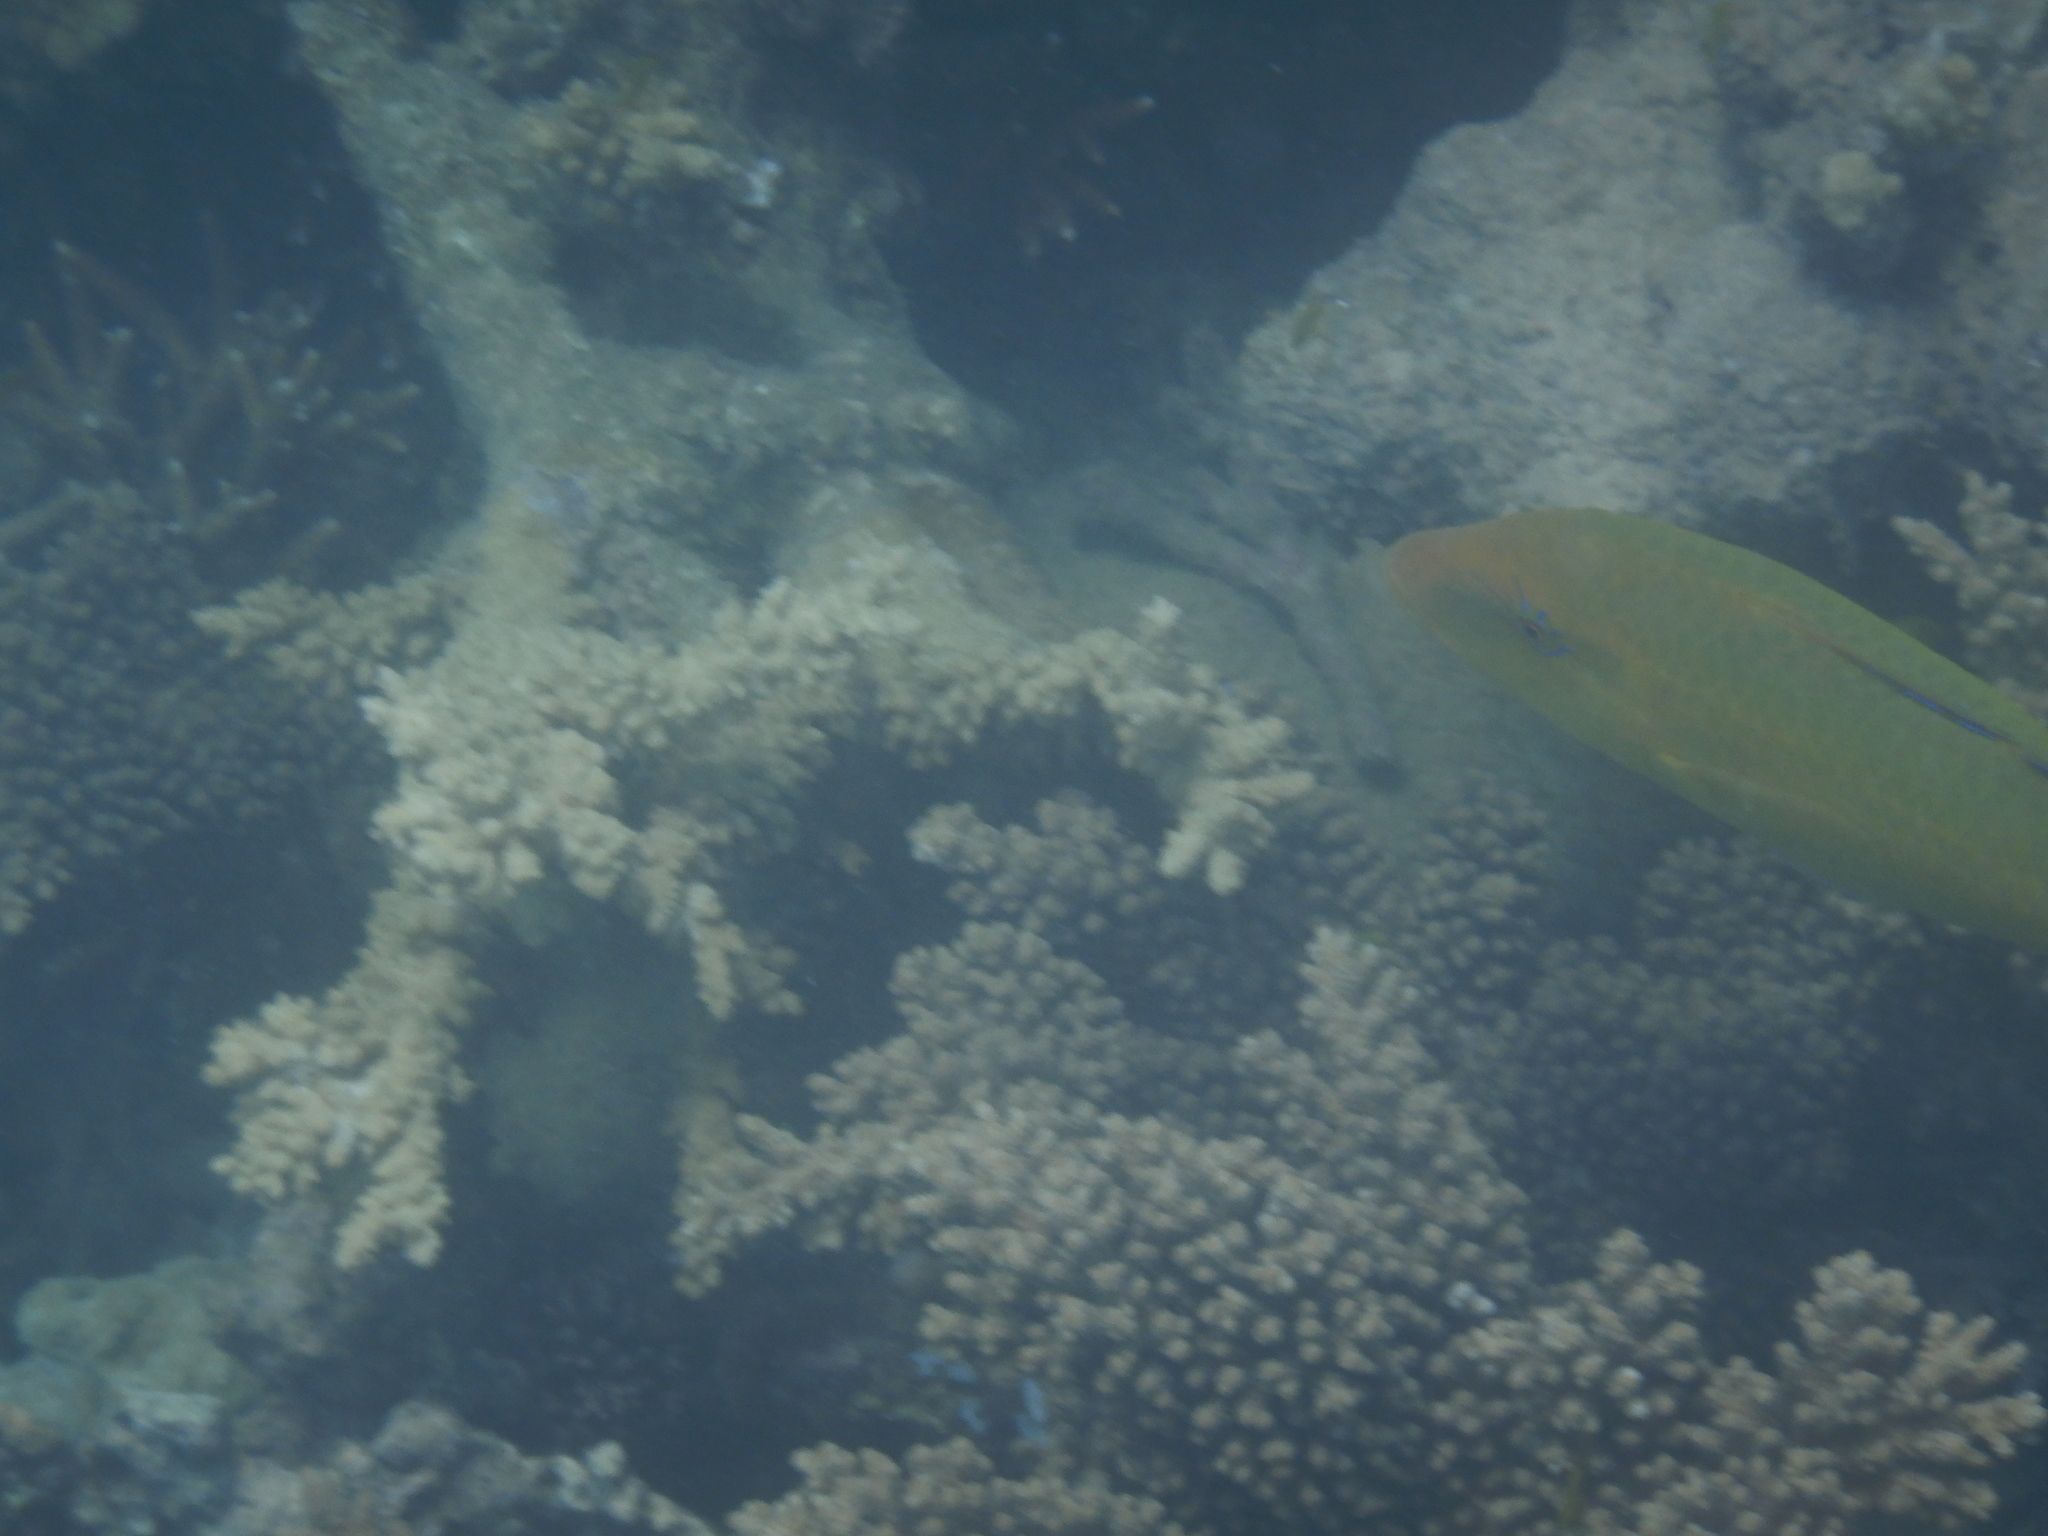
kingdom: Animalia
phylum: Chordata
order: Perciformes
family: Mullidae
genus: Parupeneus
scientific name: Parupeneus cyclostomus
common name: Goldsaddle goatfish
